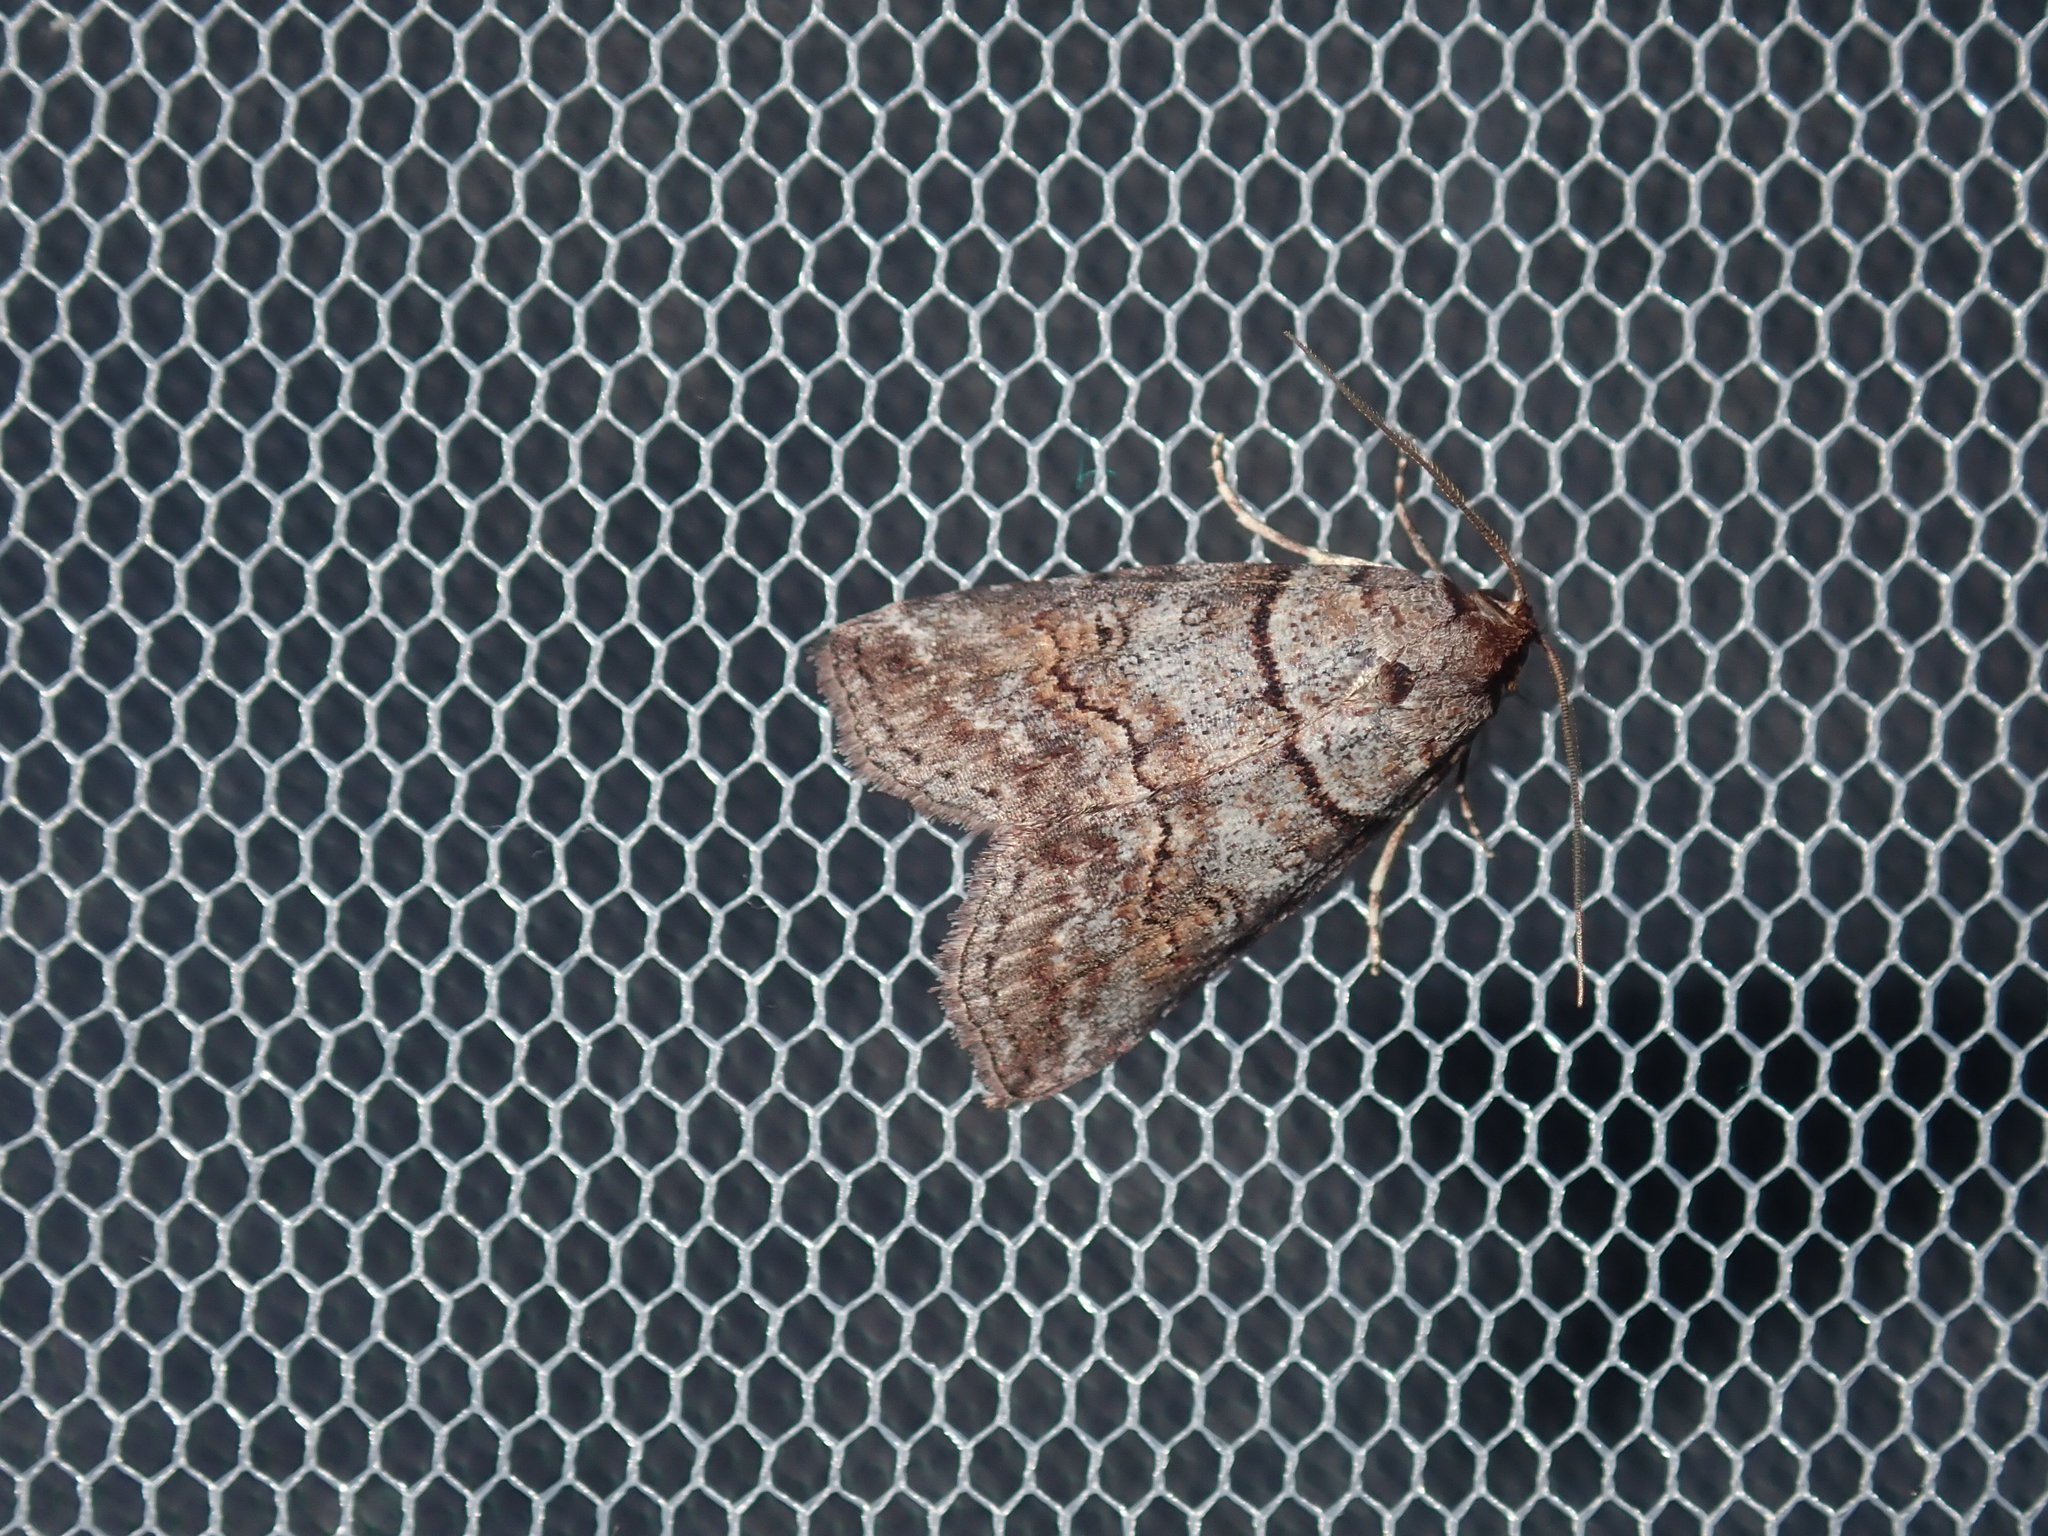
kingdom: Animalia
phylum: Arthropoda
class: Insecta
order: Lepidoptera
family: Nolidae
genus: Calathusa
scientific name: Calathusa hypotherma
